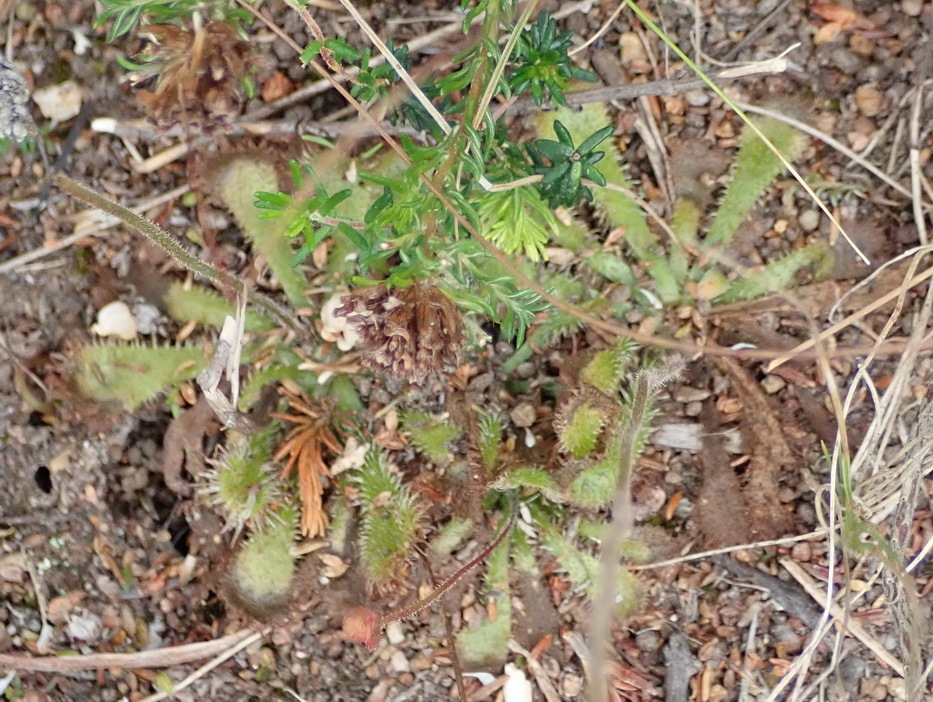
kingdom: Plantae
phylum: Tracheophyta
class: Magnoliopsida
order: Caryophyllales
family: Droseraceae
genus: Drosera
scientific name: Drosera natalensis
